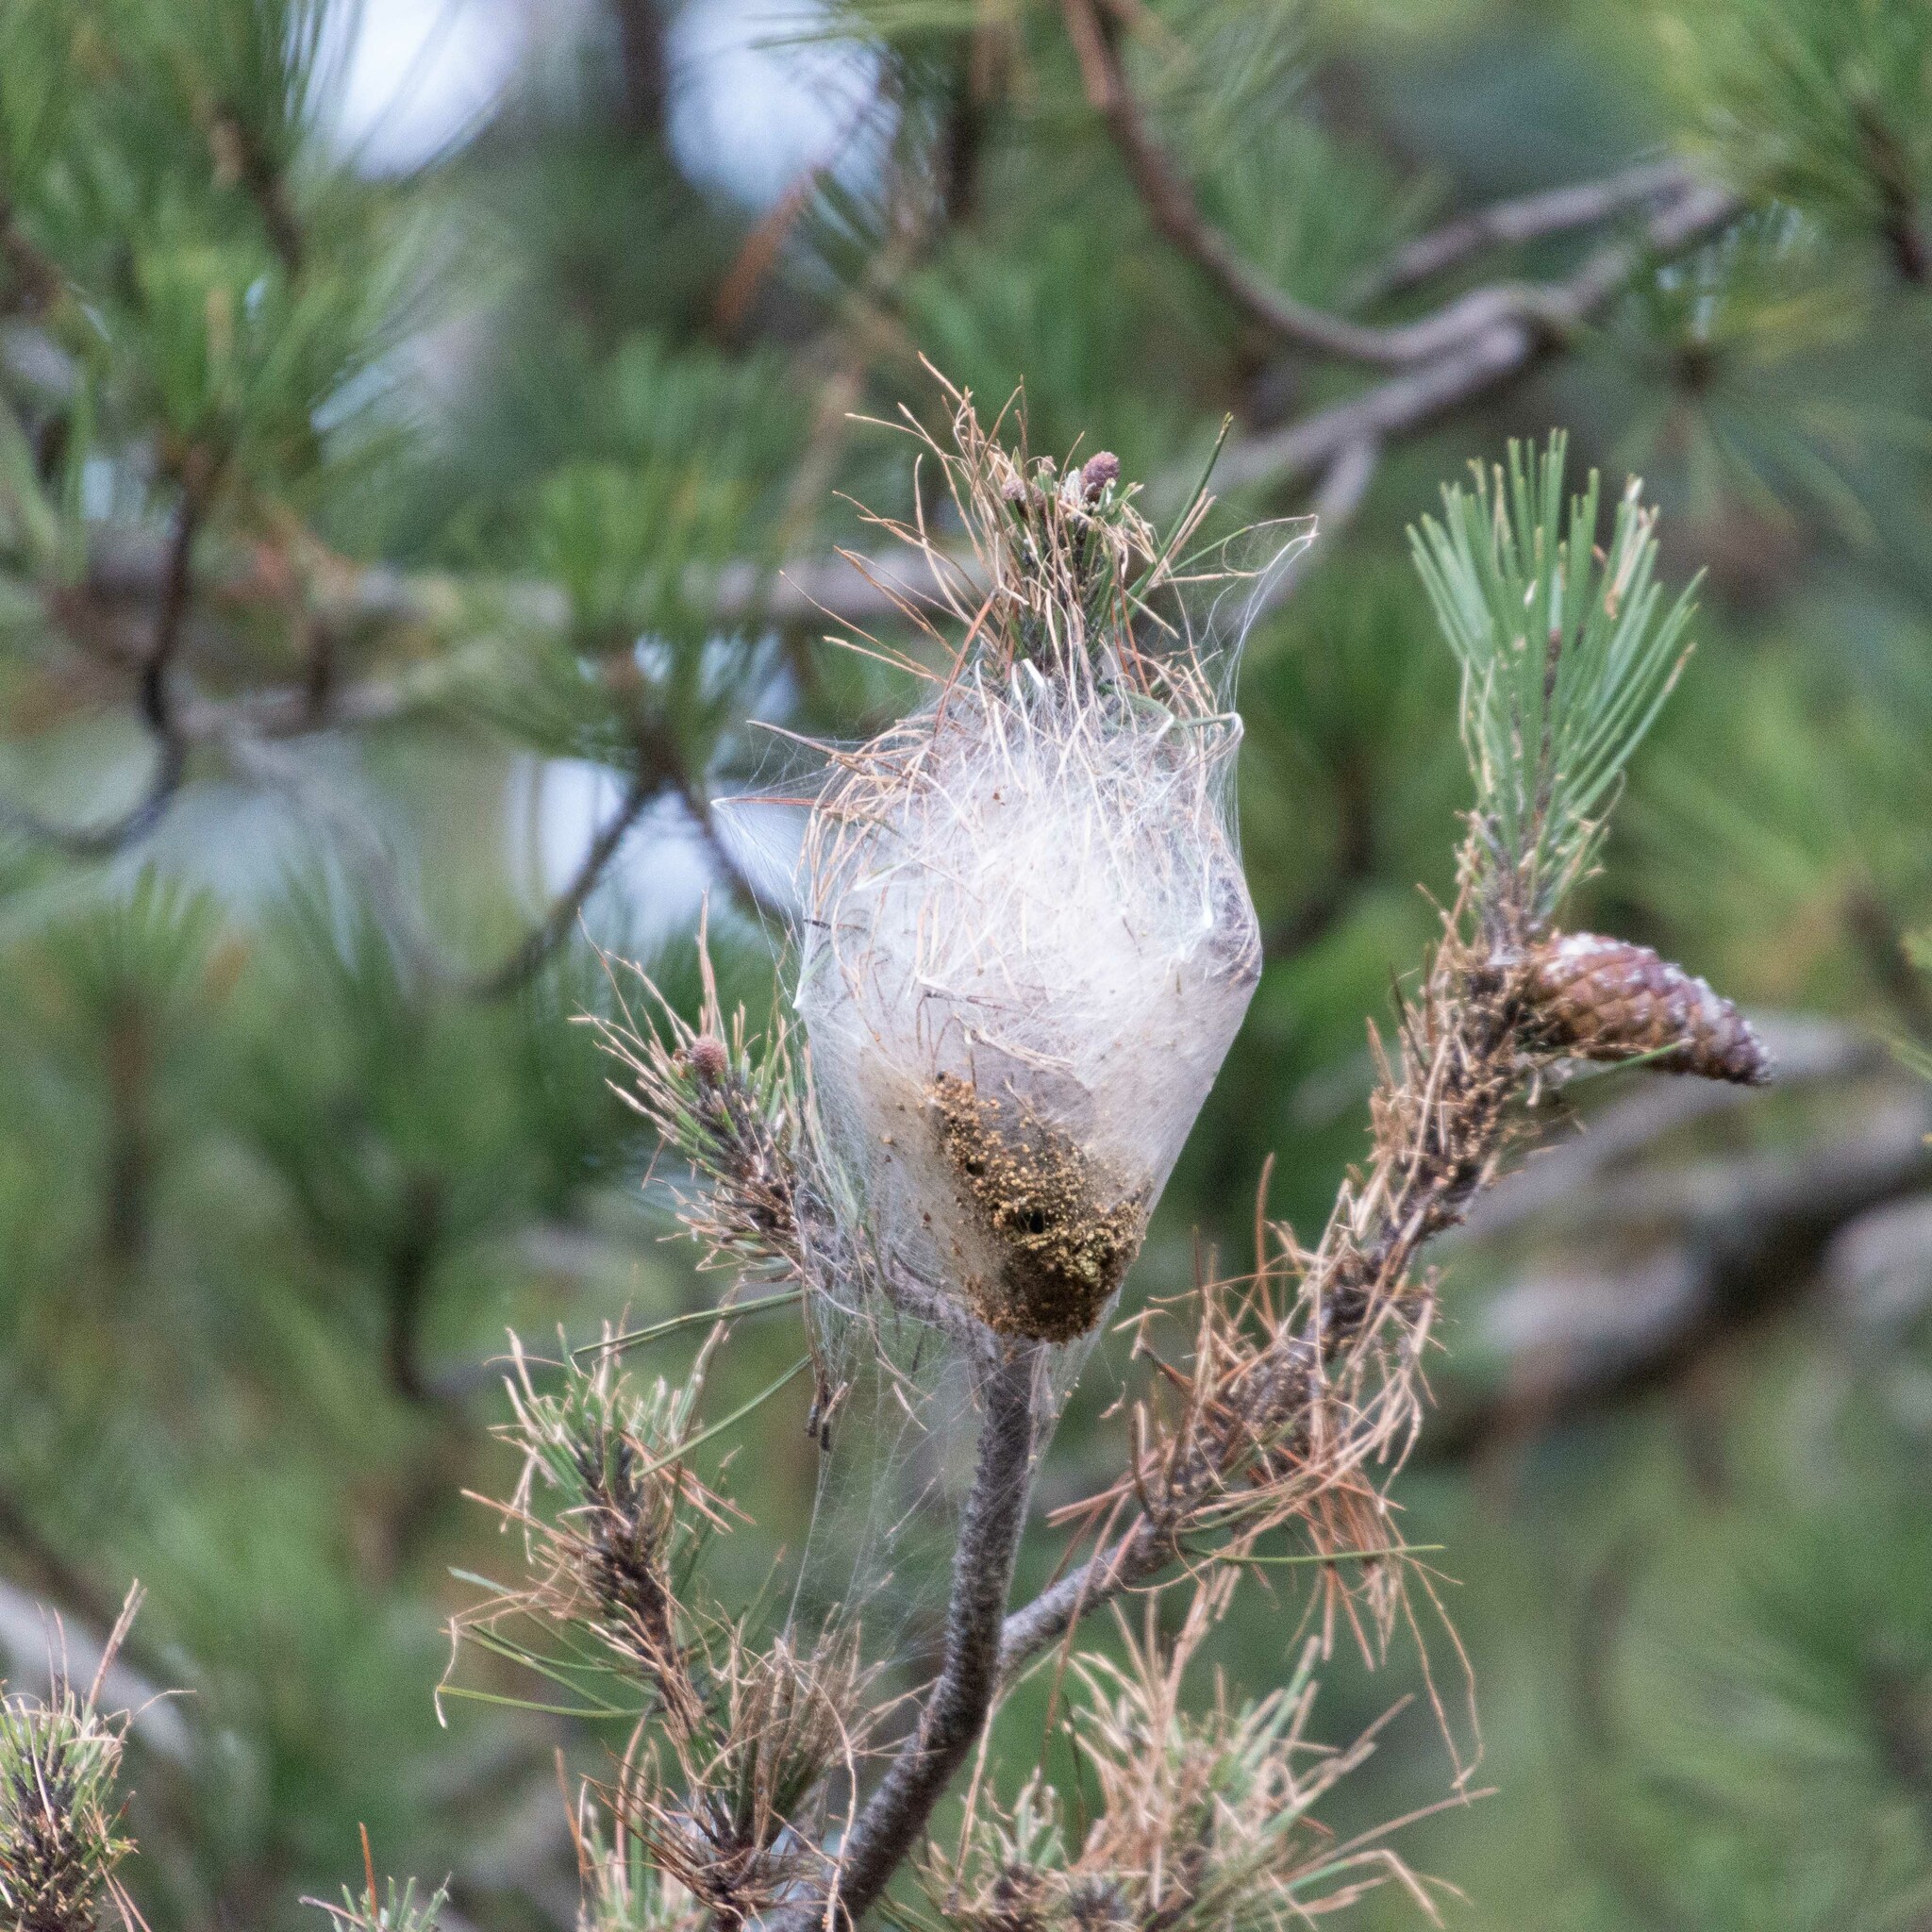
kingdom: Animalia
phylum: Arthropoda
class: Insecta
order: Lepidoptera
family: Notodontidae
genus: Thaumetopoea
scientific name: Thaumetopoea pityocampa
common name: Pine processionary
